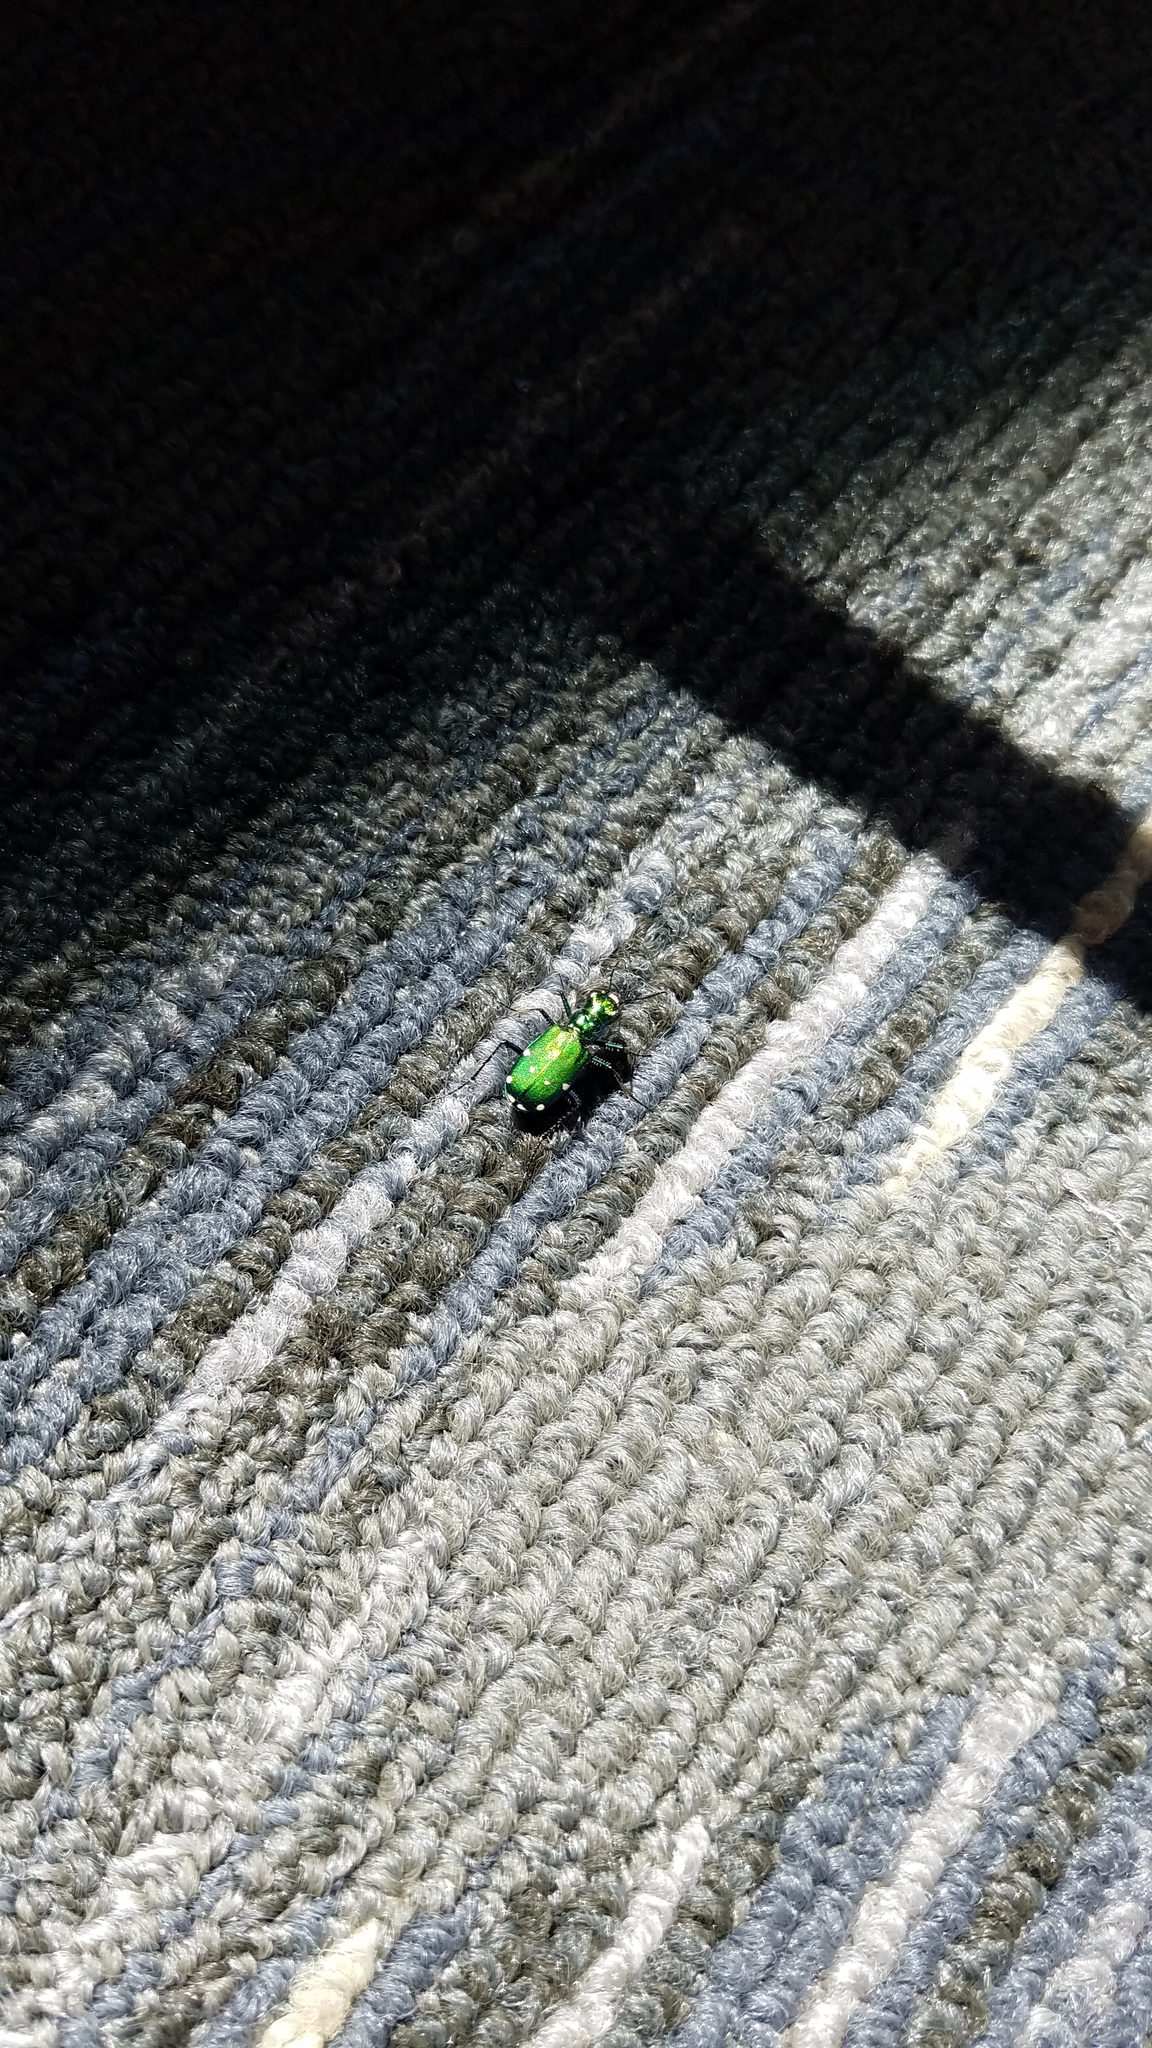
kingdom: Animalia
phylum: Arthropoda
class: Insecta
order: Coleoptera
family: Carabidae
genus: Cicindela
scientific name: Cicindela sexguttata
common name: Six-spotted tiger beetle
